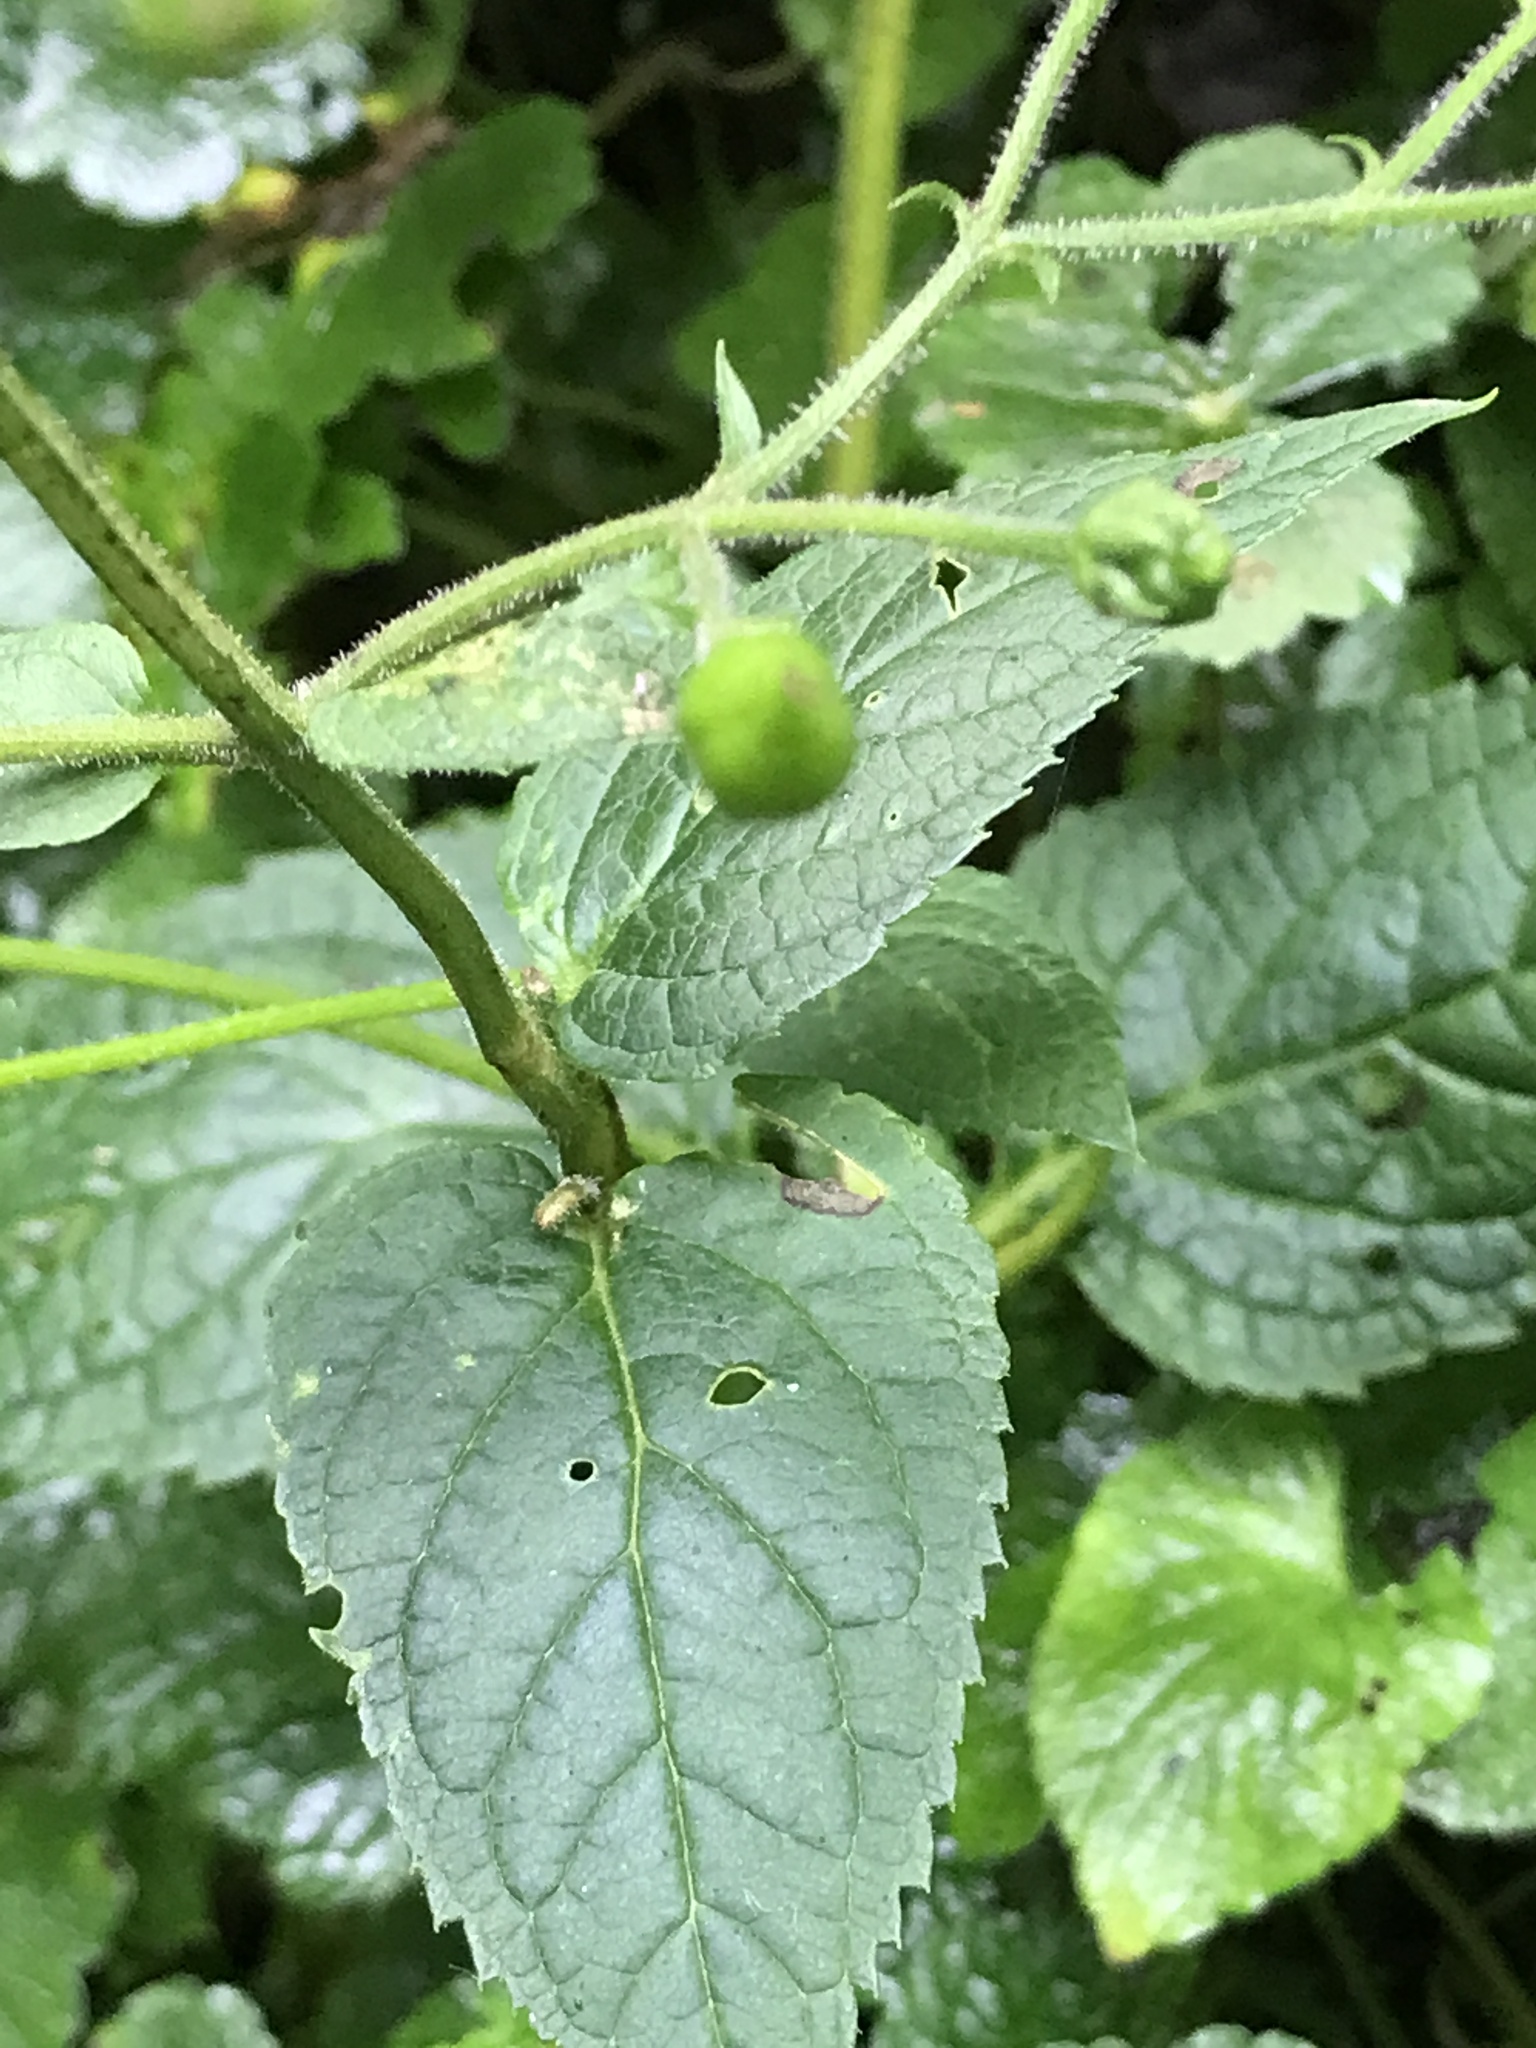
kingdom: Plantae
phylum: Tracheophyta
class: Magnoliopsida
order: Lamiales
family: Scrophulariaceae
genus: Scrophularia
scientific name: Scrophularia yoshimurae
